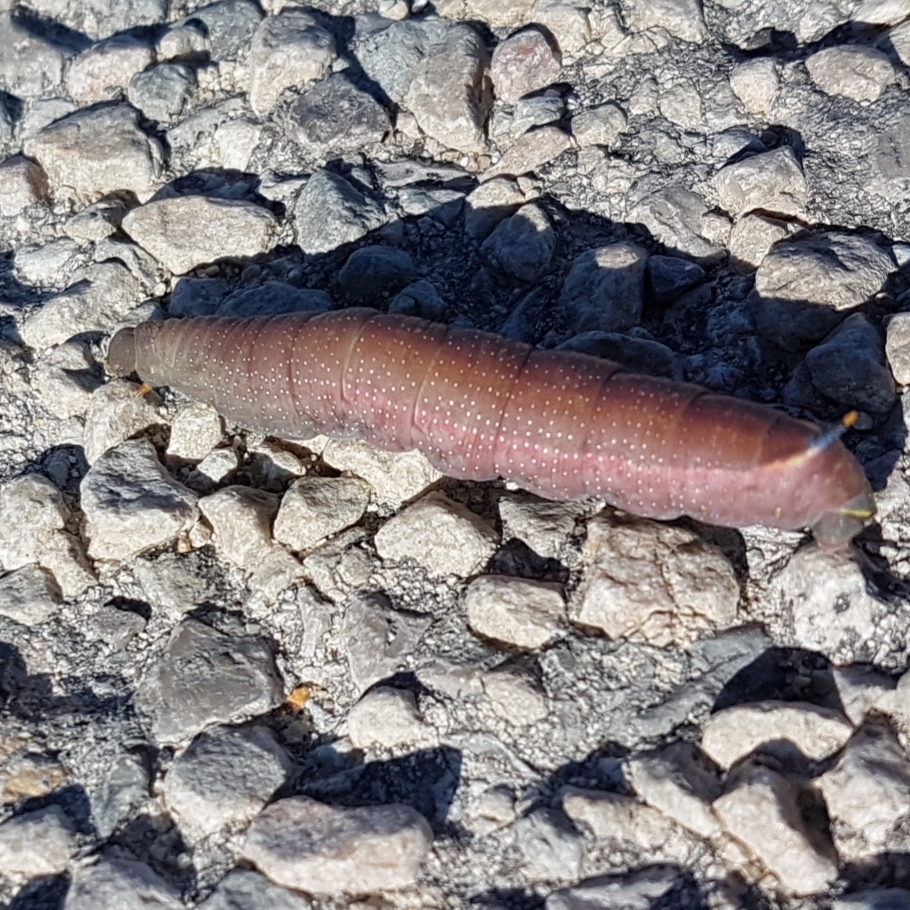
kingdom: Animalia
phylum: Arthropoda
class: Insecta
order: Lepidoptera
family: Sphingidae
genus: Macroglossum
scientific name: Macroglossum stellatarum
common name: Humming-bird hawk-moth
